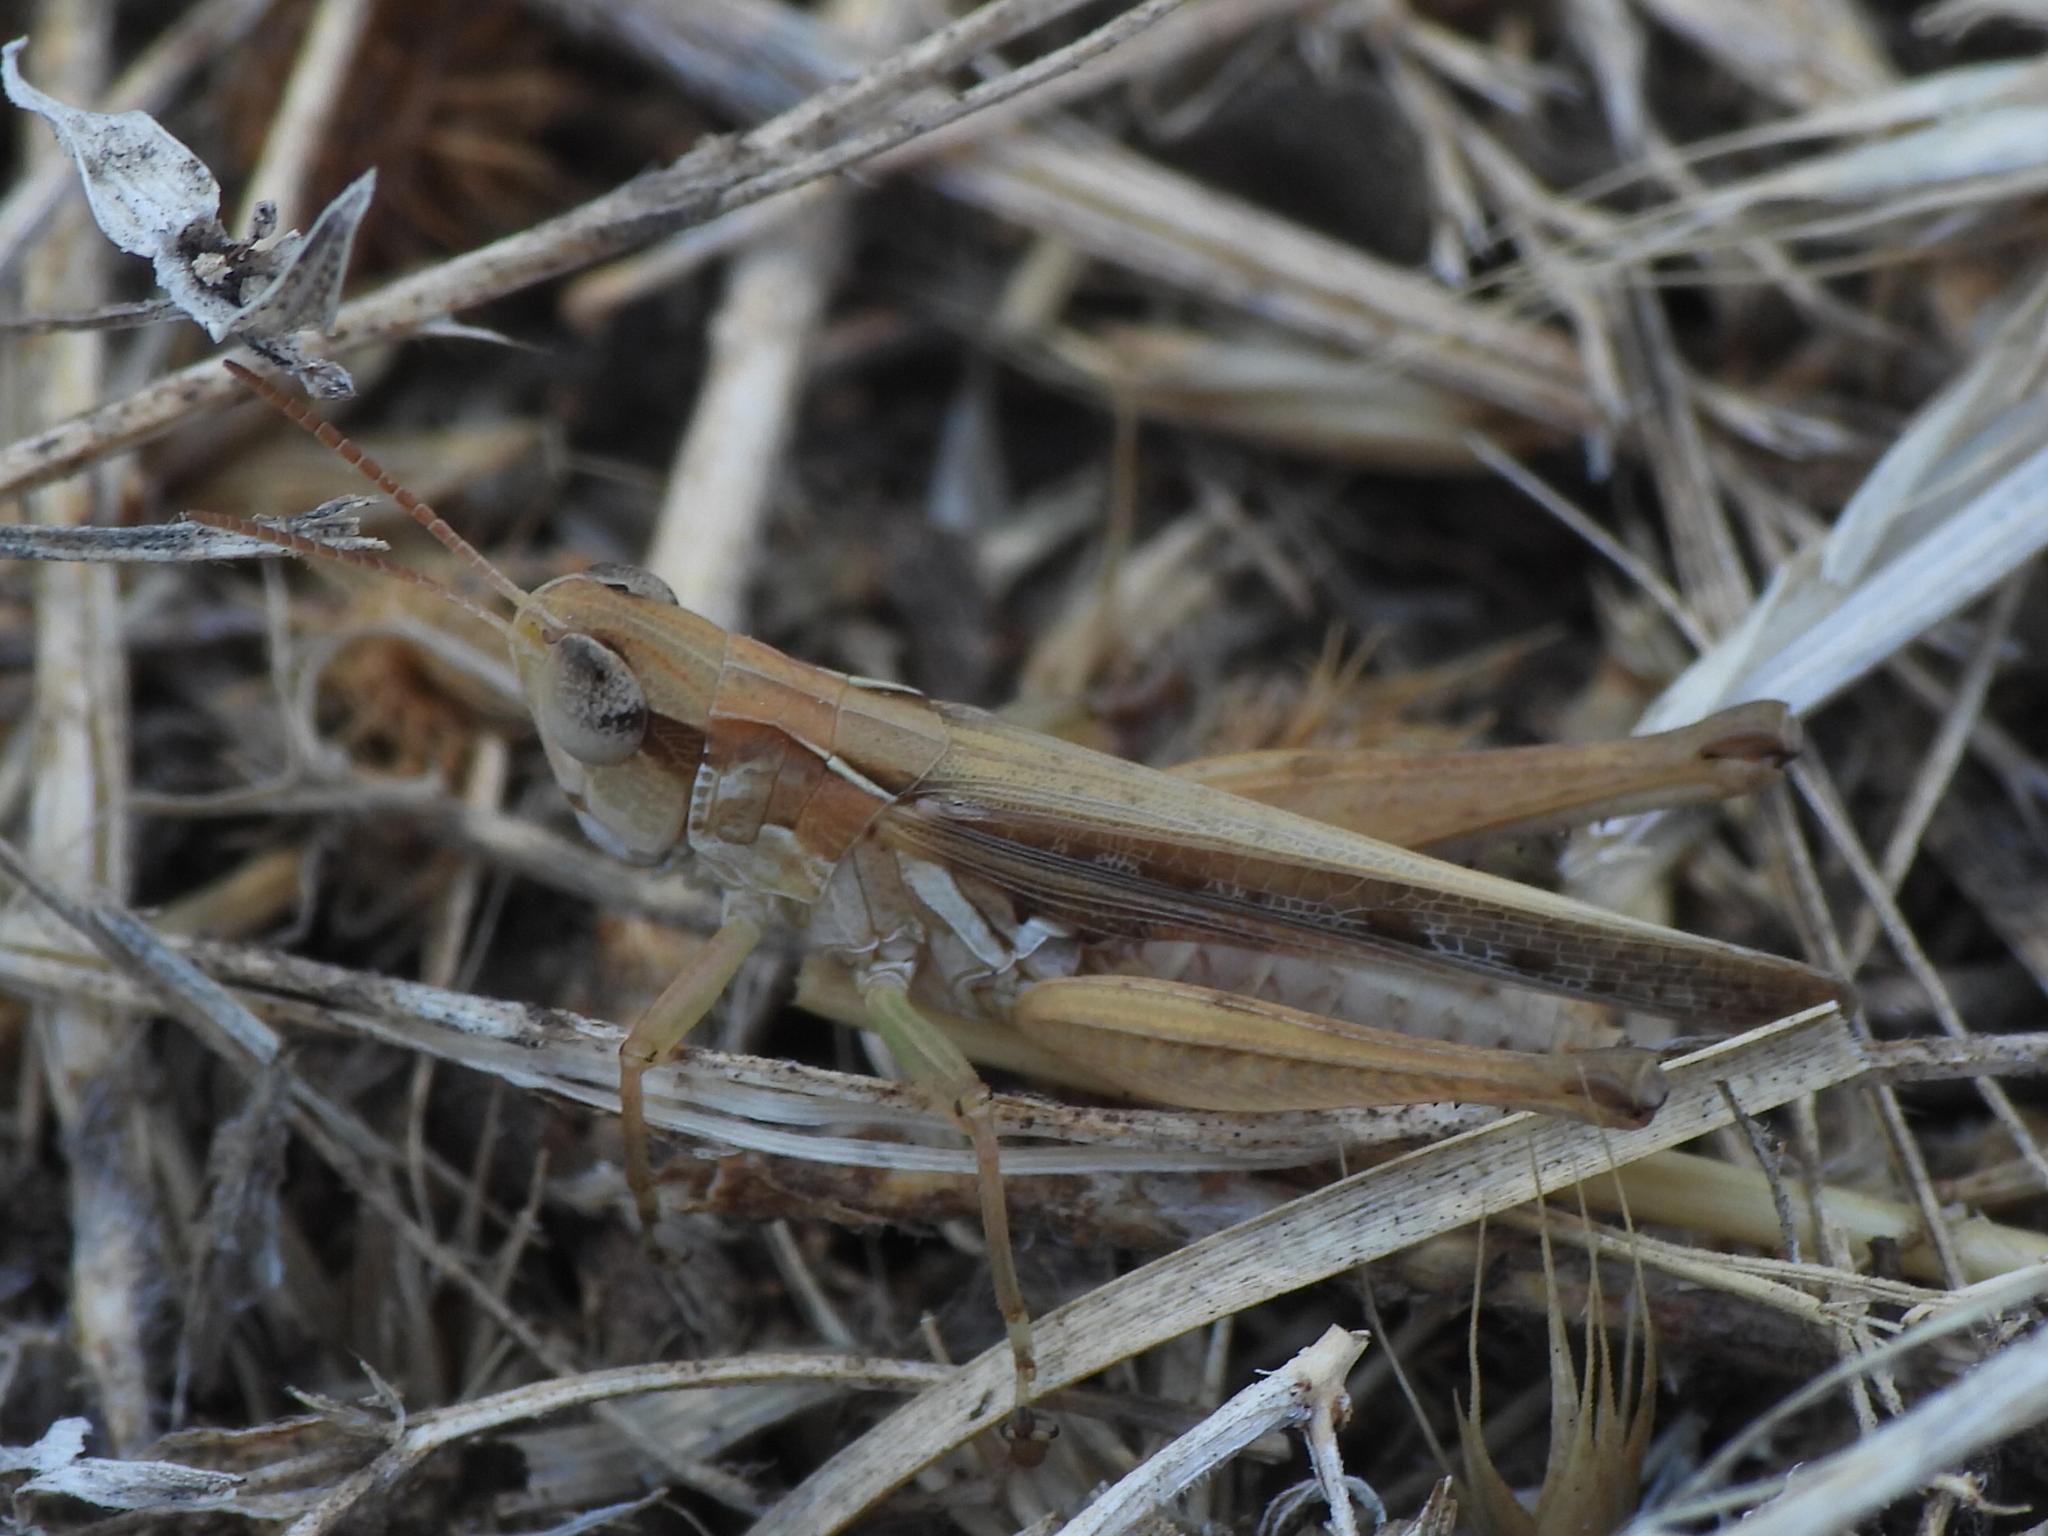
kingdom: Animalia
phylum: Arthropoda
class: Insecta
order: Orthoptera
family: Acrididae
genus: Orphulella
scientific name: Orphulella speciosa
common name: Pasture grasshopper
